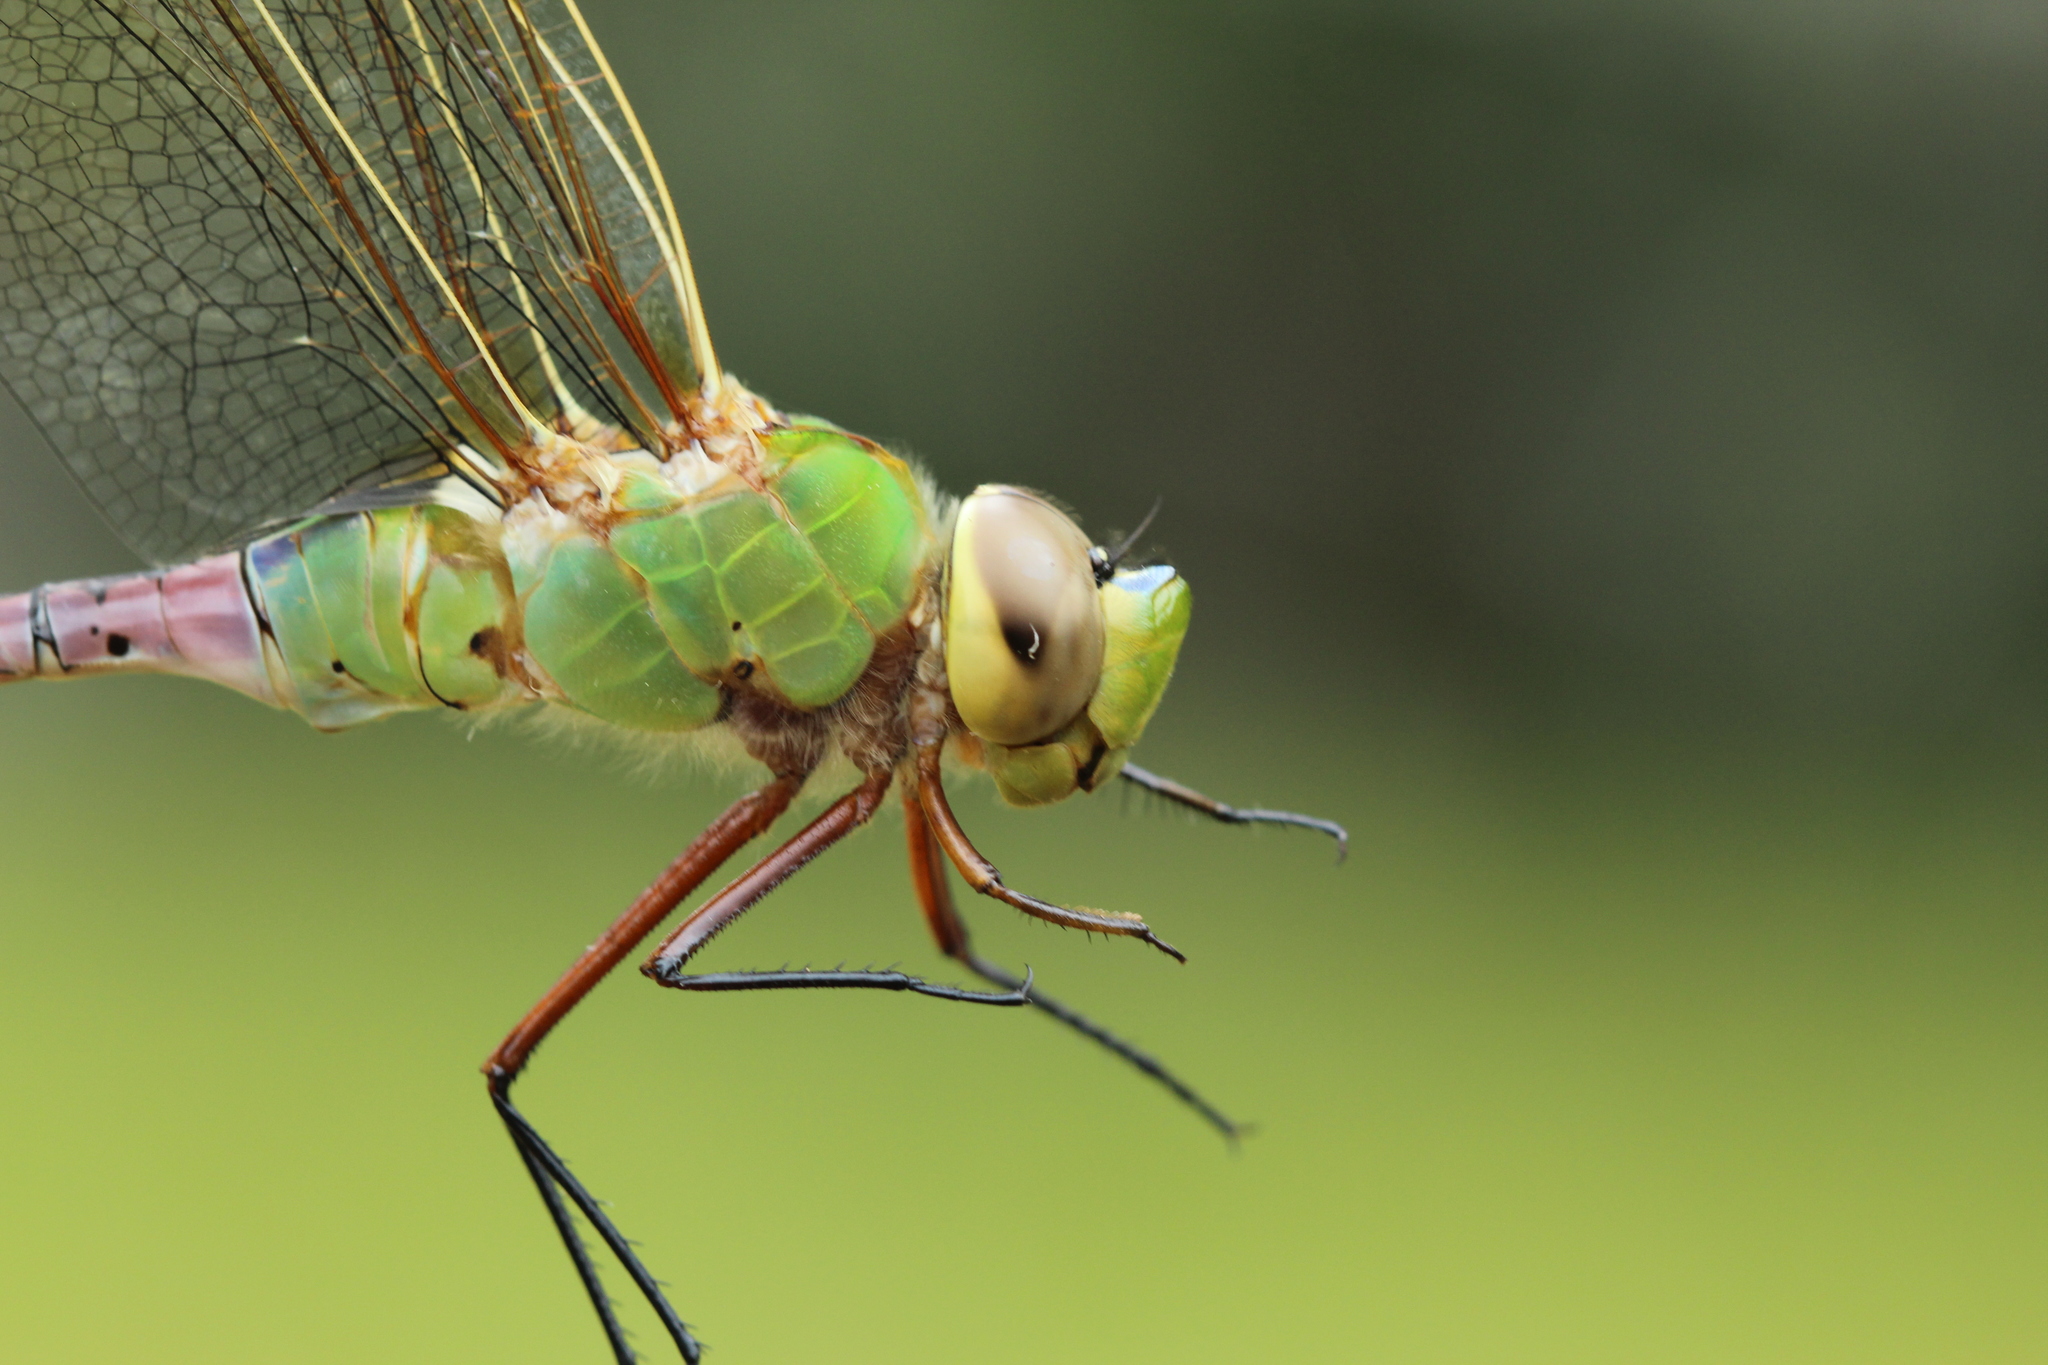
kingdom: Animalia
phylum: Arthropoda
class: Insecta
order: Odonata
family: Aeshnidae
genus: Anax
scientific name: Anax junius
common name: Common green darner
